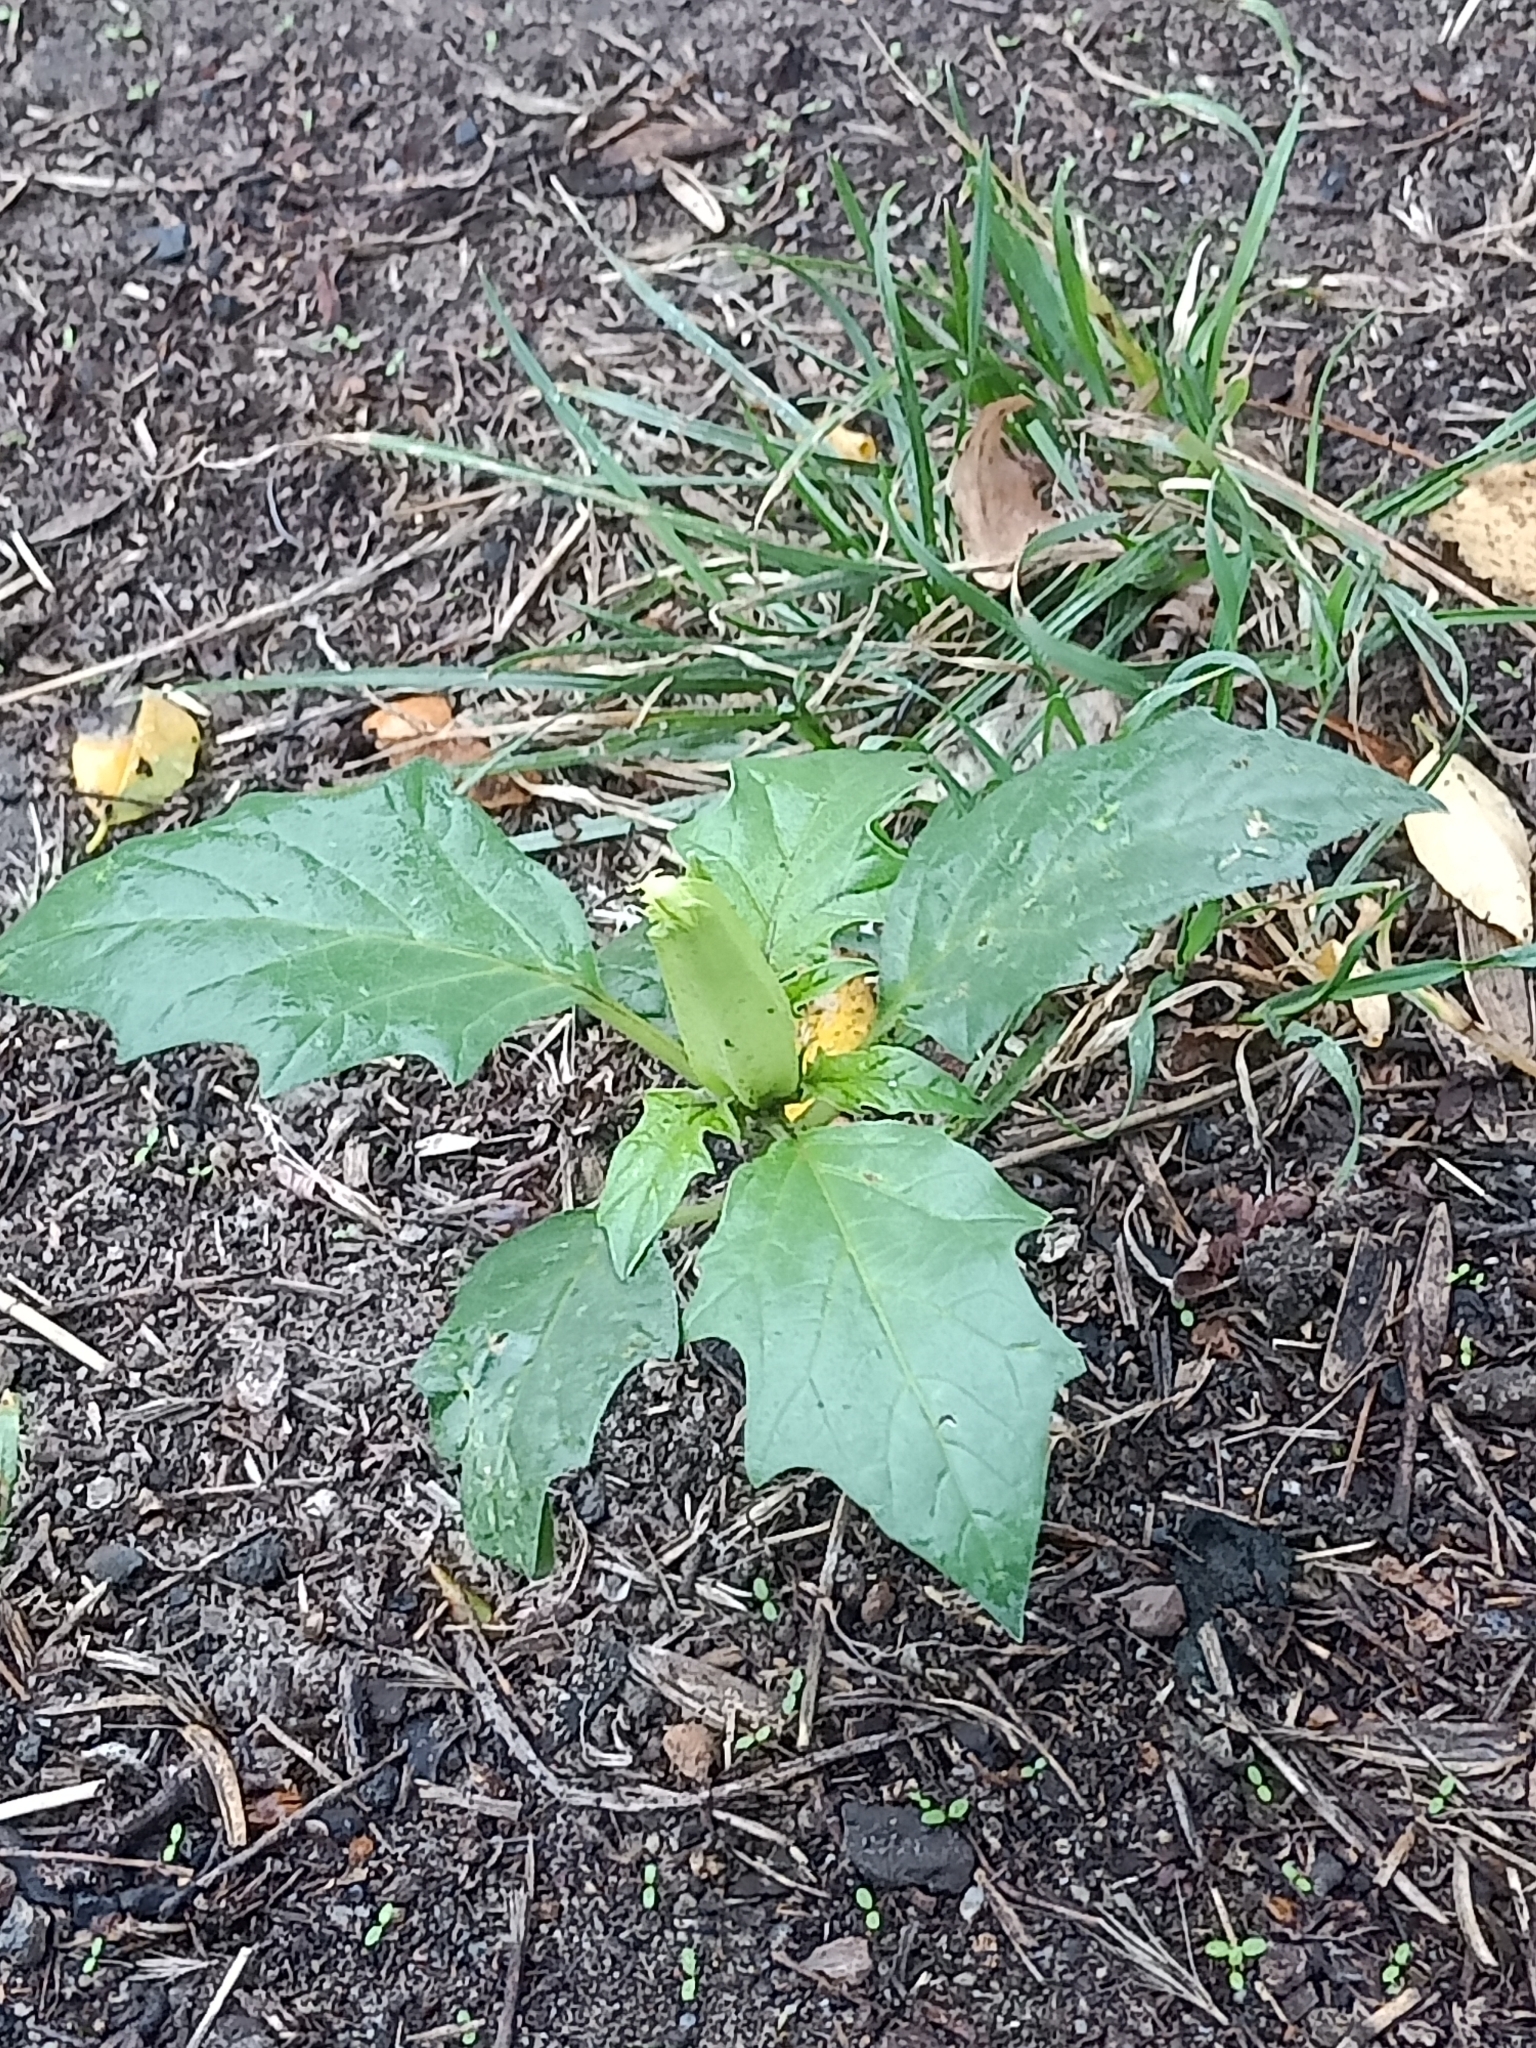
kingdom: Plantae
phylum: Tracheophyta
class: Magnoliopsida
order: Solanales
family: Solanaceae
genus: Datura
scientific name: Datura stramonium
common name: Thorn-apple
